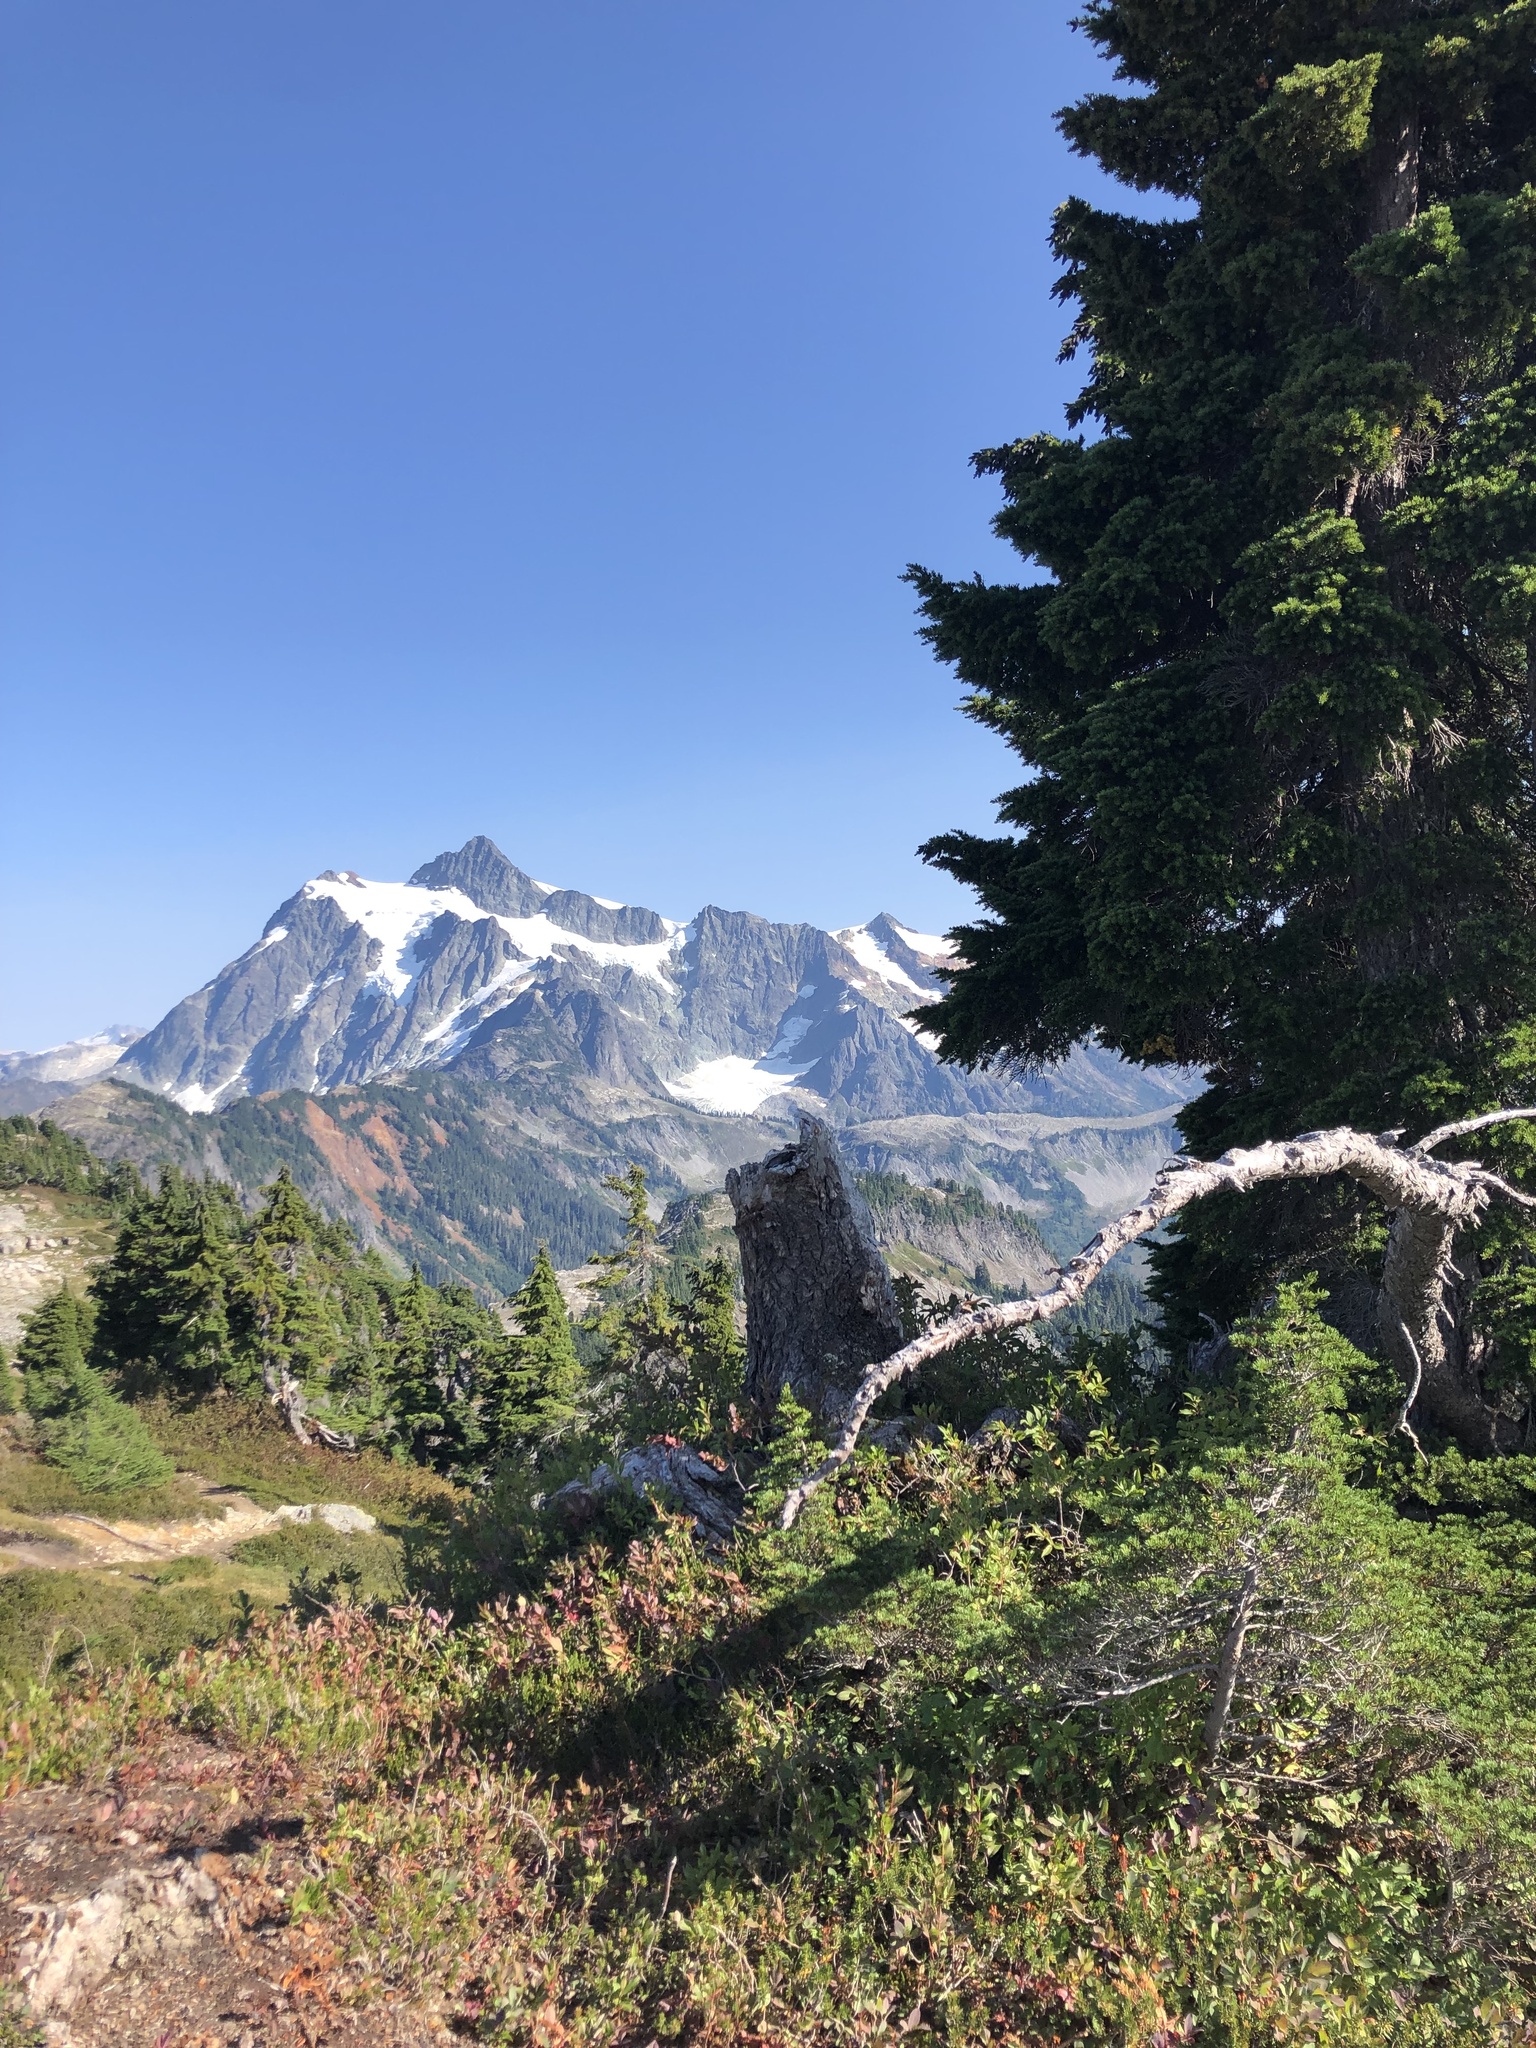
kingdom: Plantae
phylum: Tracheophyta
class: Pinopsida
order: Pinales
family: Pinaceae
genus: Tsuga
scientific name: Tsuga mertensiana
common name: Mountain hemlock
